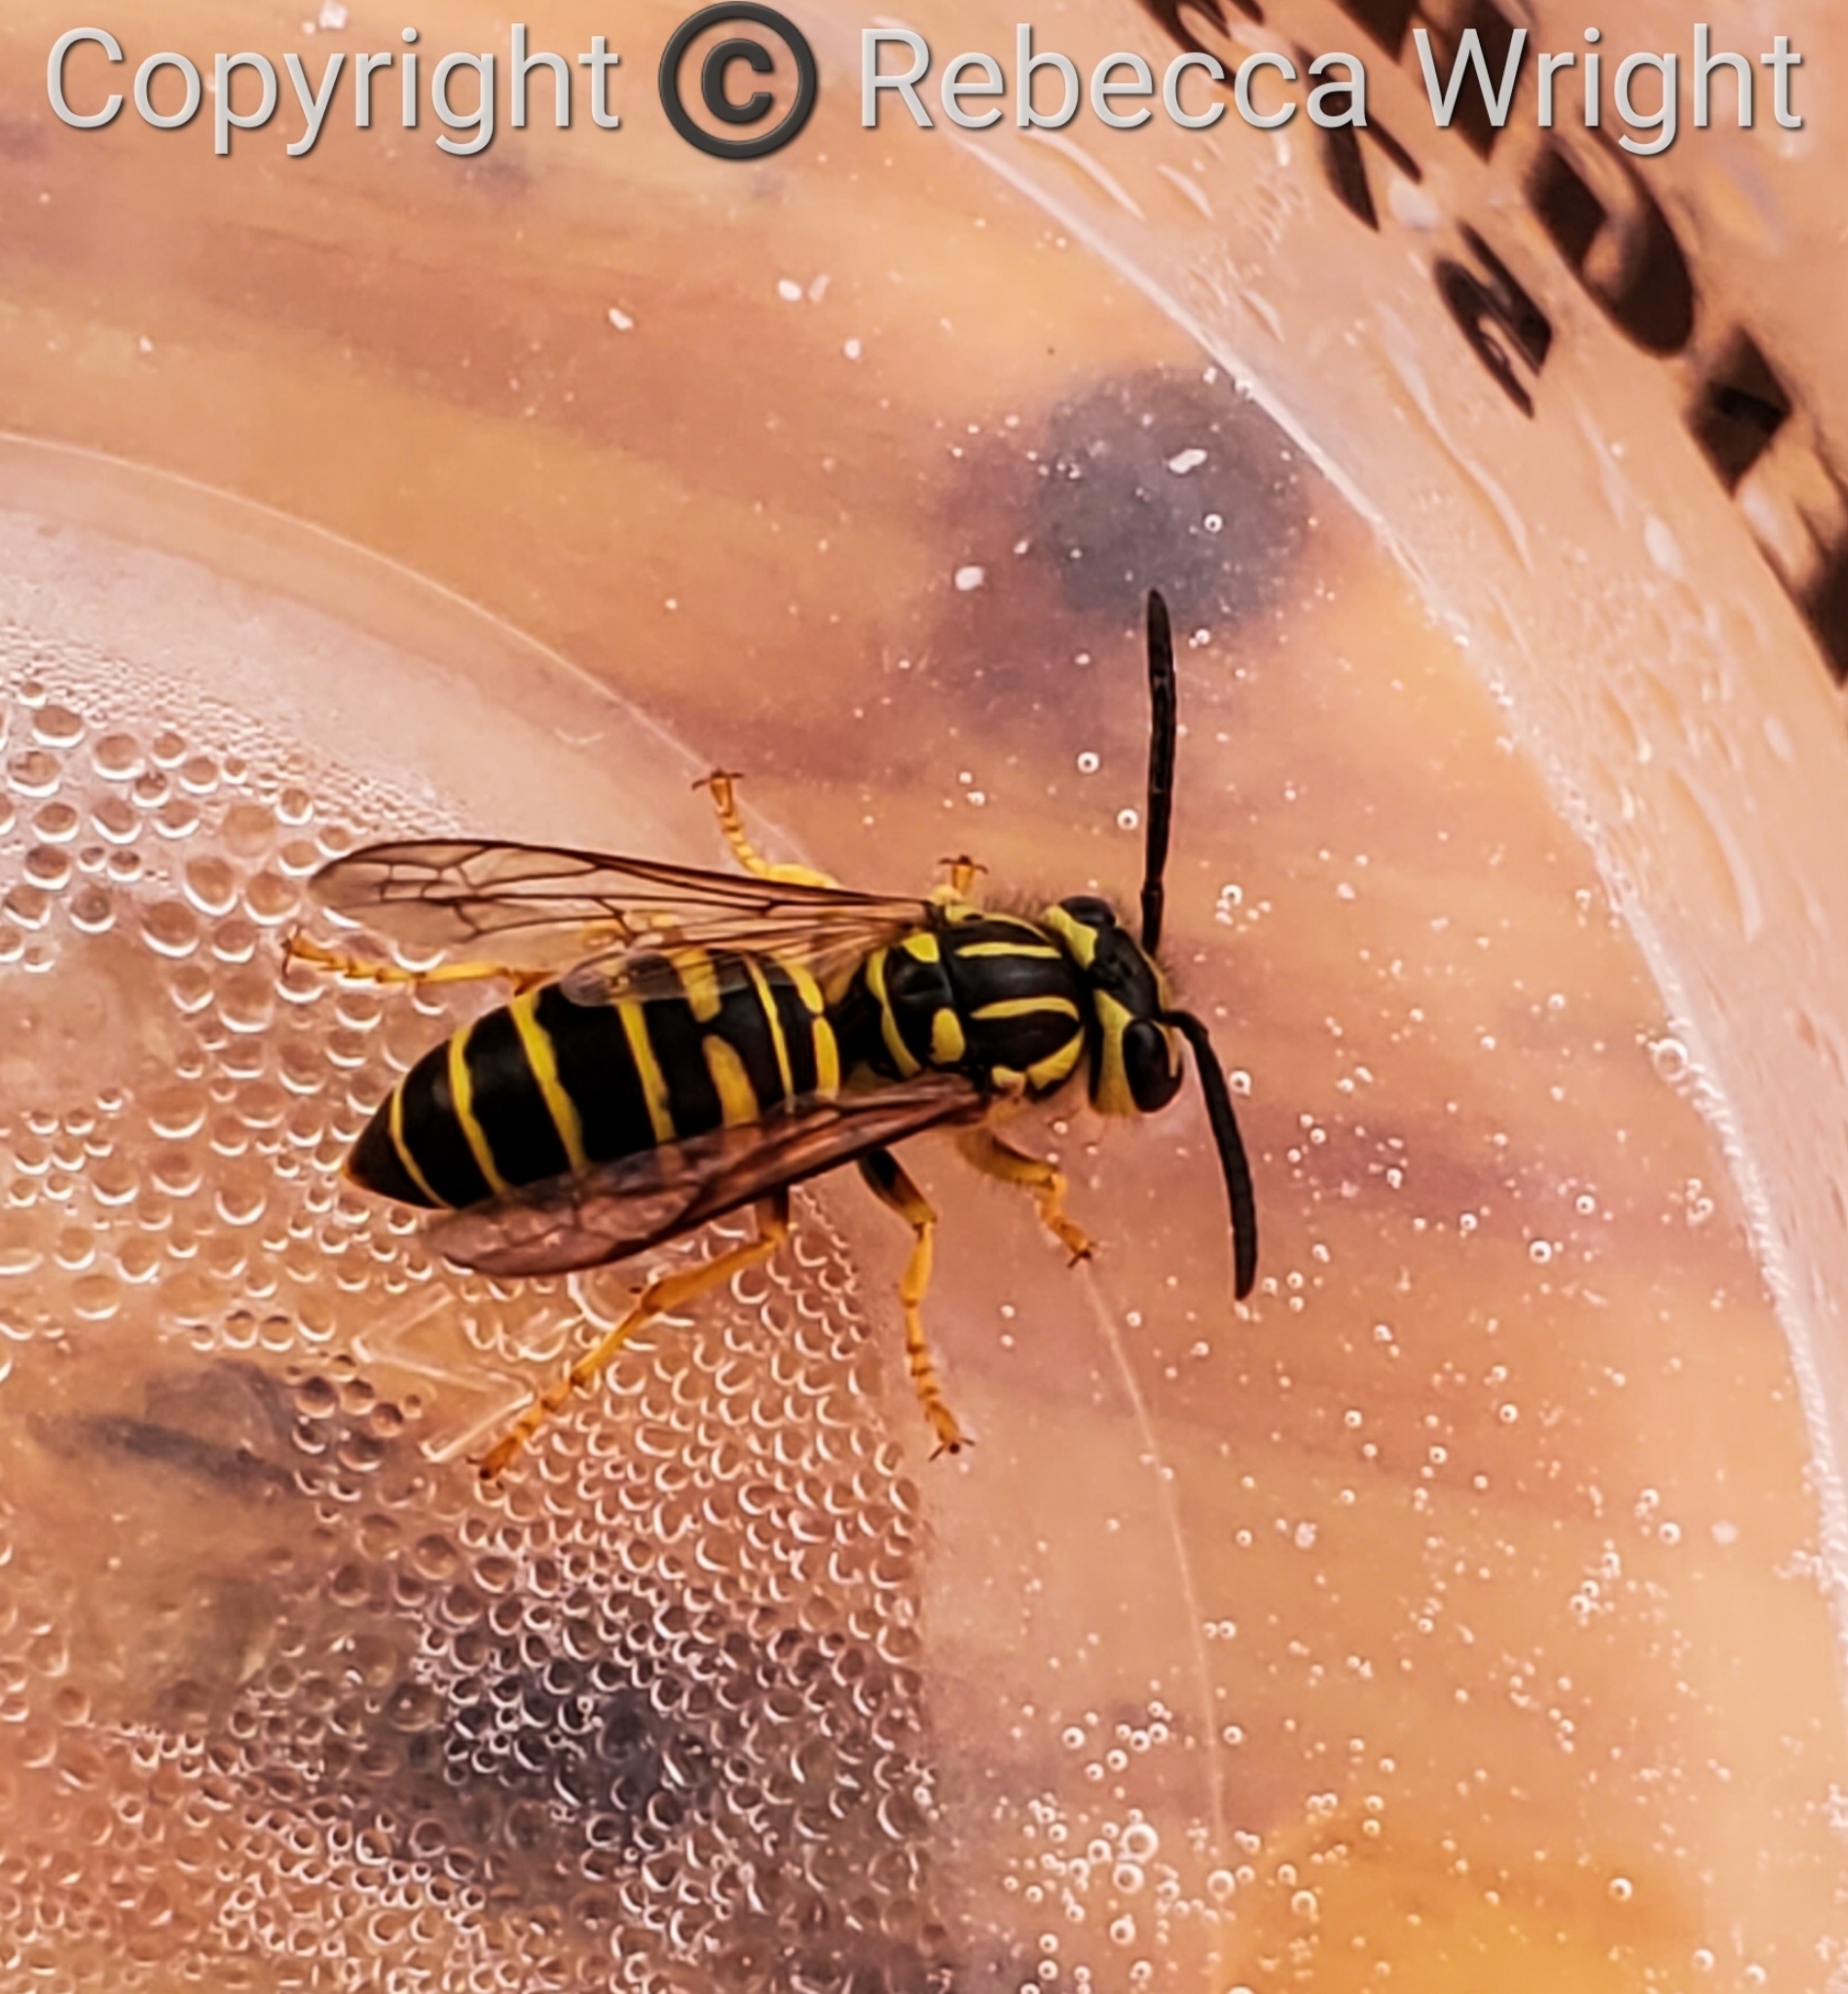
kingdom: Animalia
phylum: Arthropoda
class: Insecta
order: Hymenoptera
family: Vespidae
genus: Vespula
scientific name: Vespula squamosa
